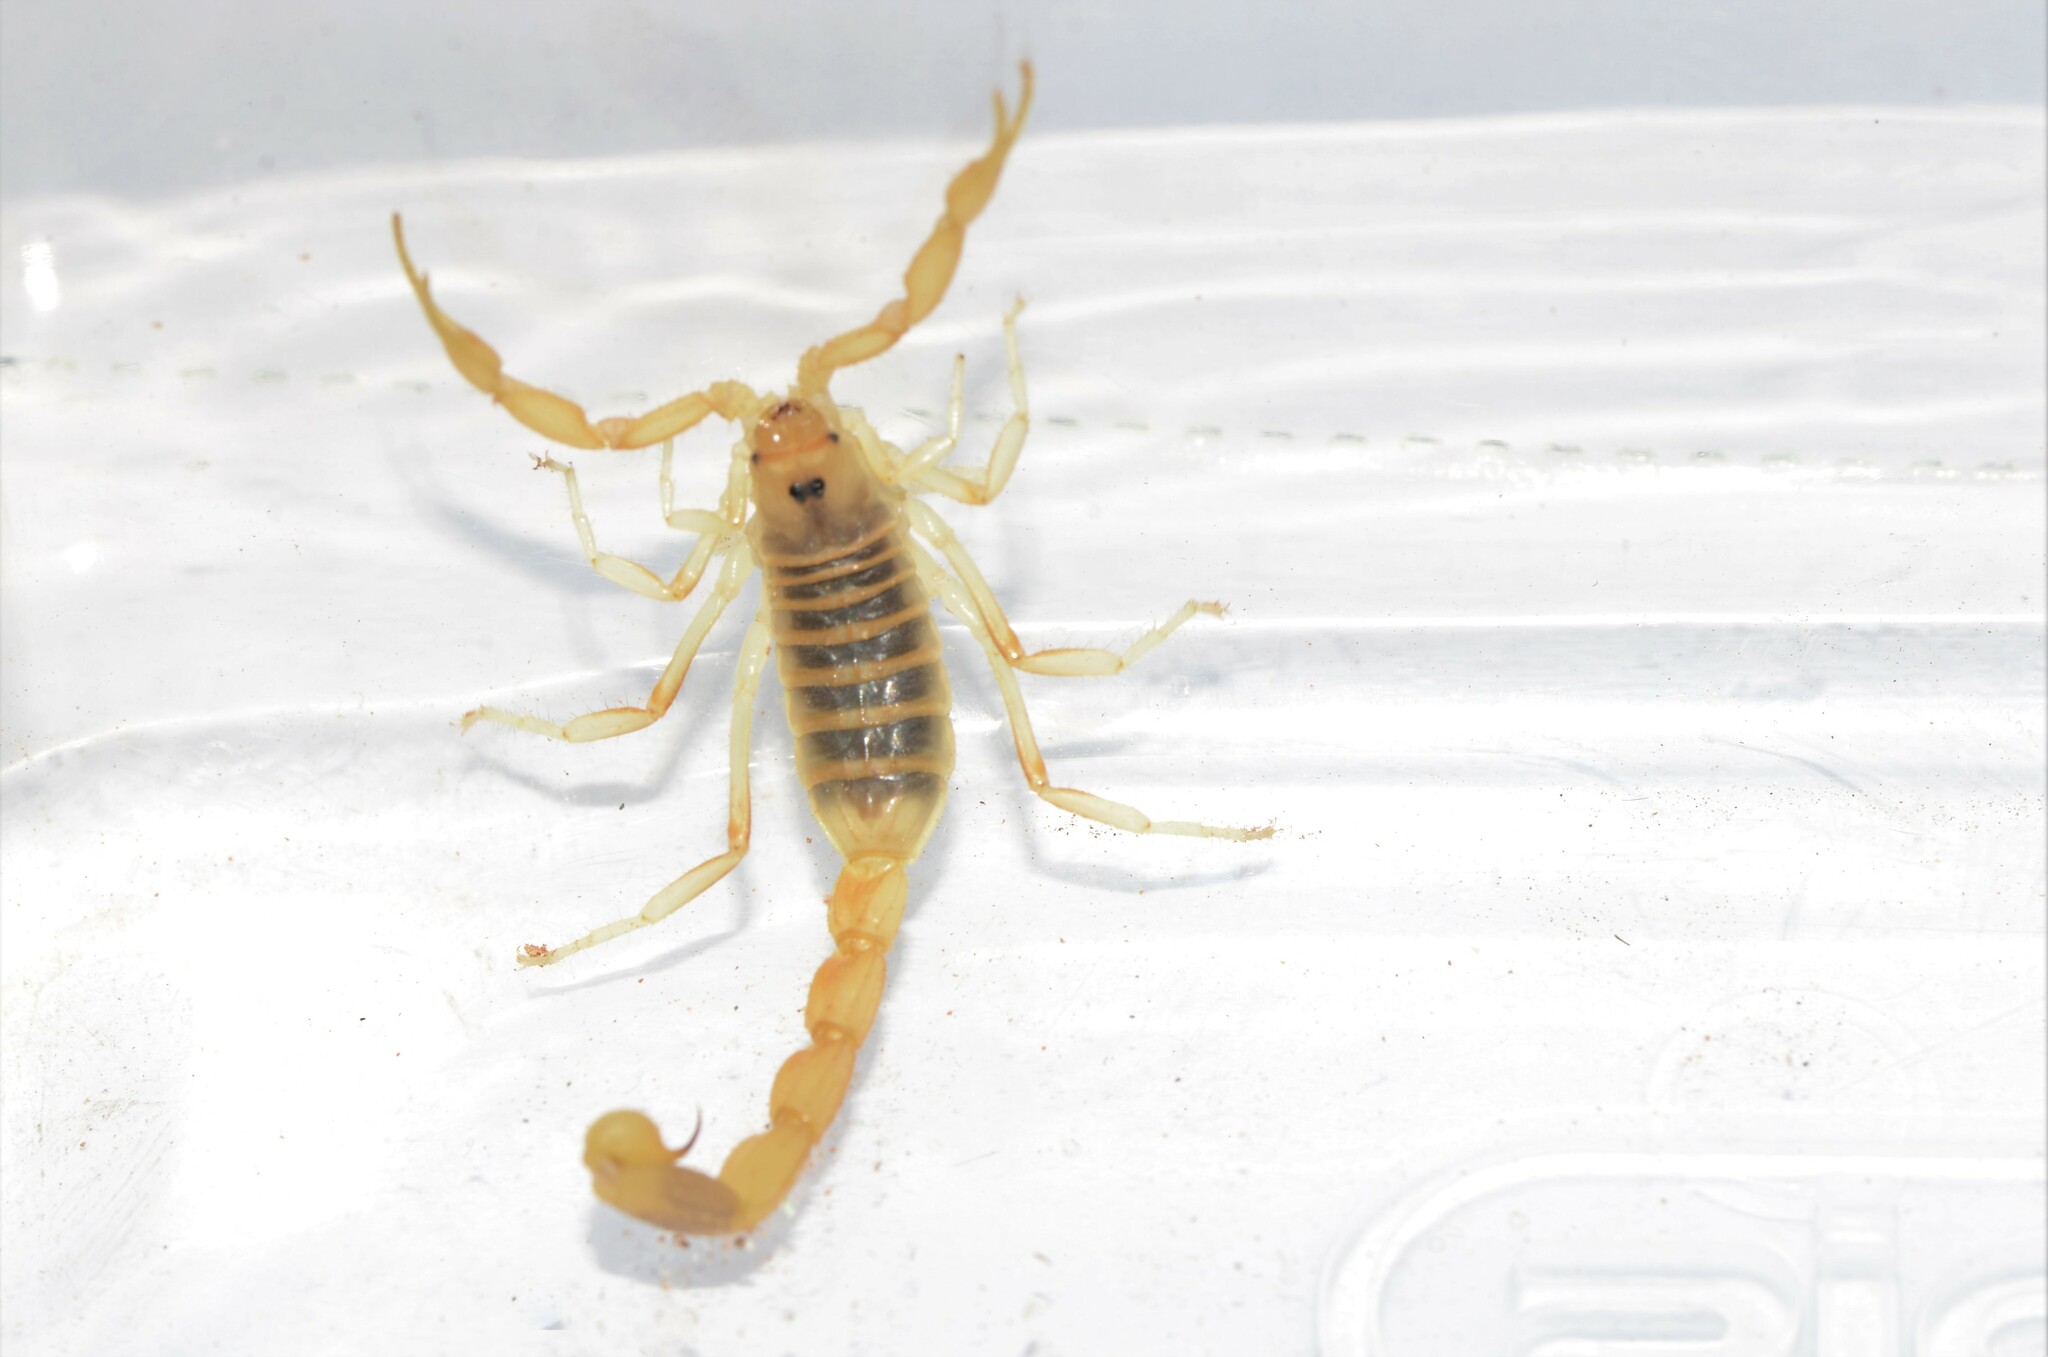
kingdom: Animalia
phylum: Arthropoda
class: Arachnida
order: Scorpiones
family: Buthidae
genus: Uroplectes
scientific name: Uroplectes gracilior
